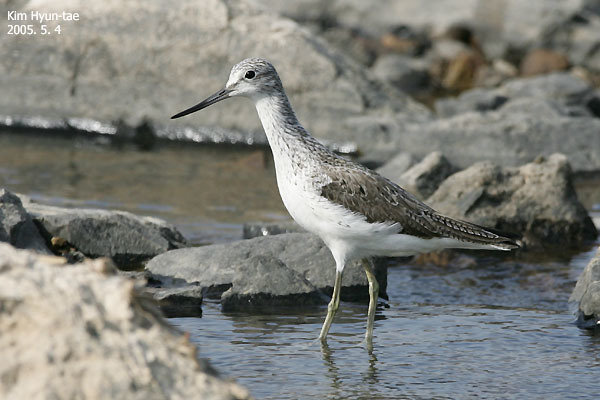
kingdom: Animalia
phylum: Chordata
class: Aves
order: Charadriiformes
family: Scolopacidae
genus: Tringa
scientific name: Tringa nebularia
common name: Common greenshank
